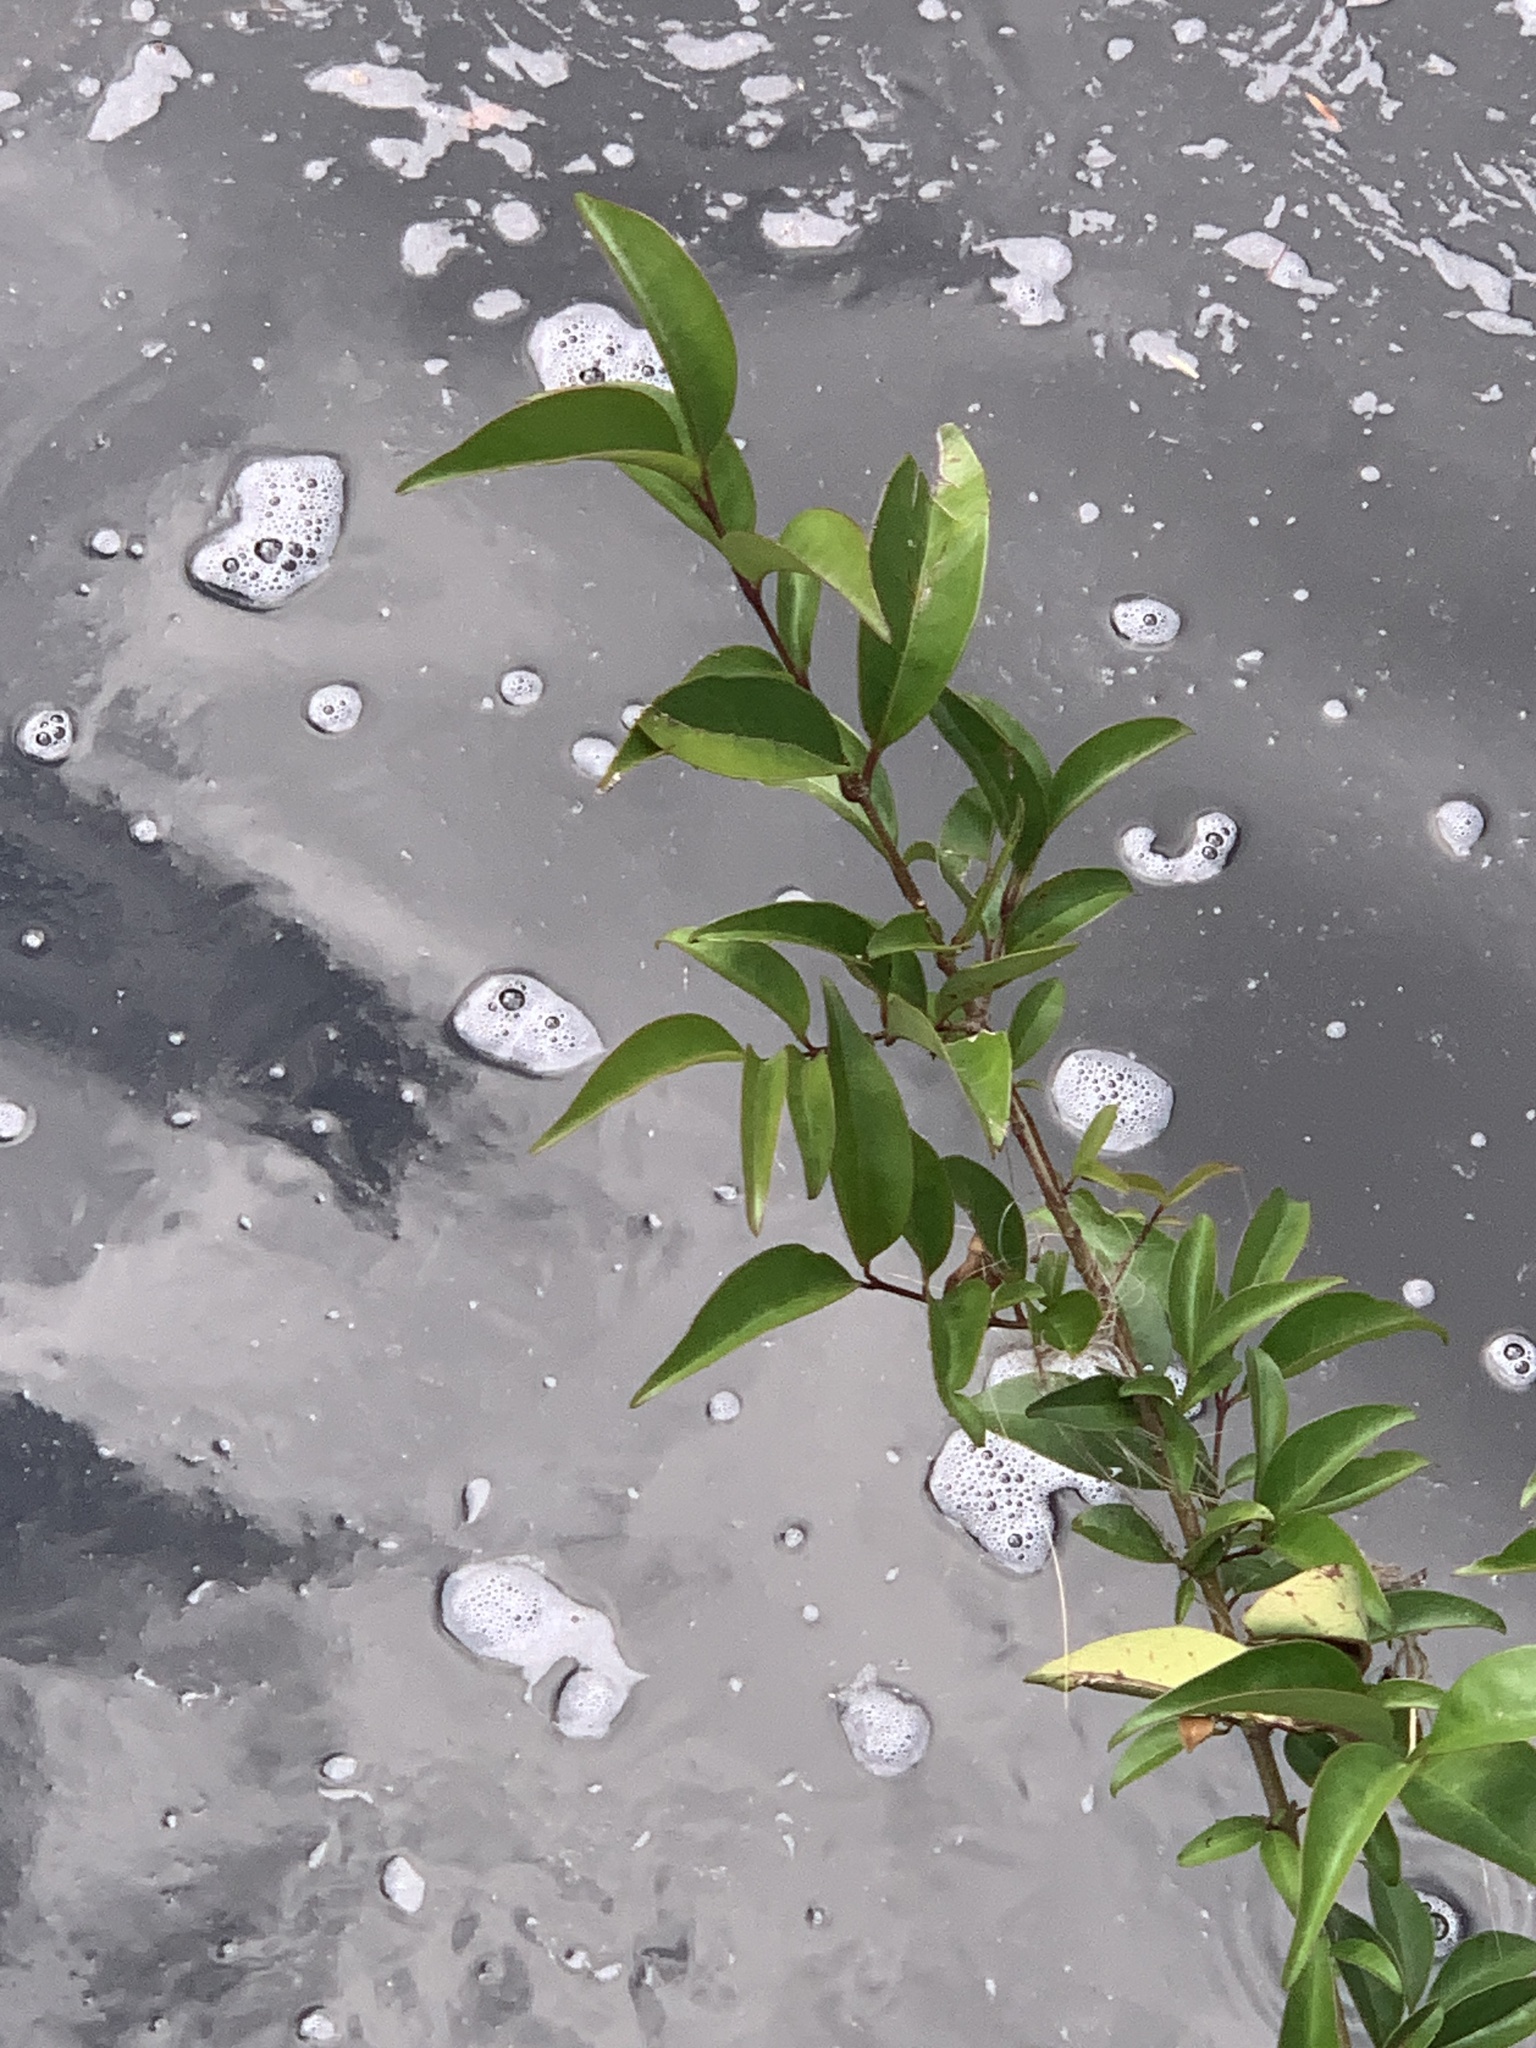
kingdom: Plantae
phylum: Tracheophyta
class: Magnoliopsida
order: Myrtales
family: Myrtaceae
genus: Syzygium
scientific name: Syzygium australe
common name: Australian brush-cherry
